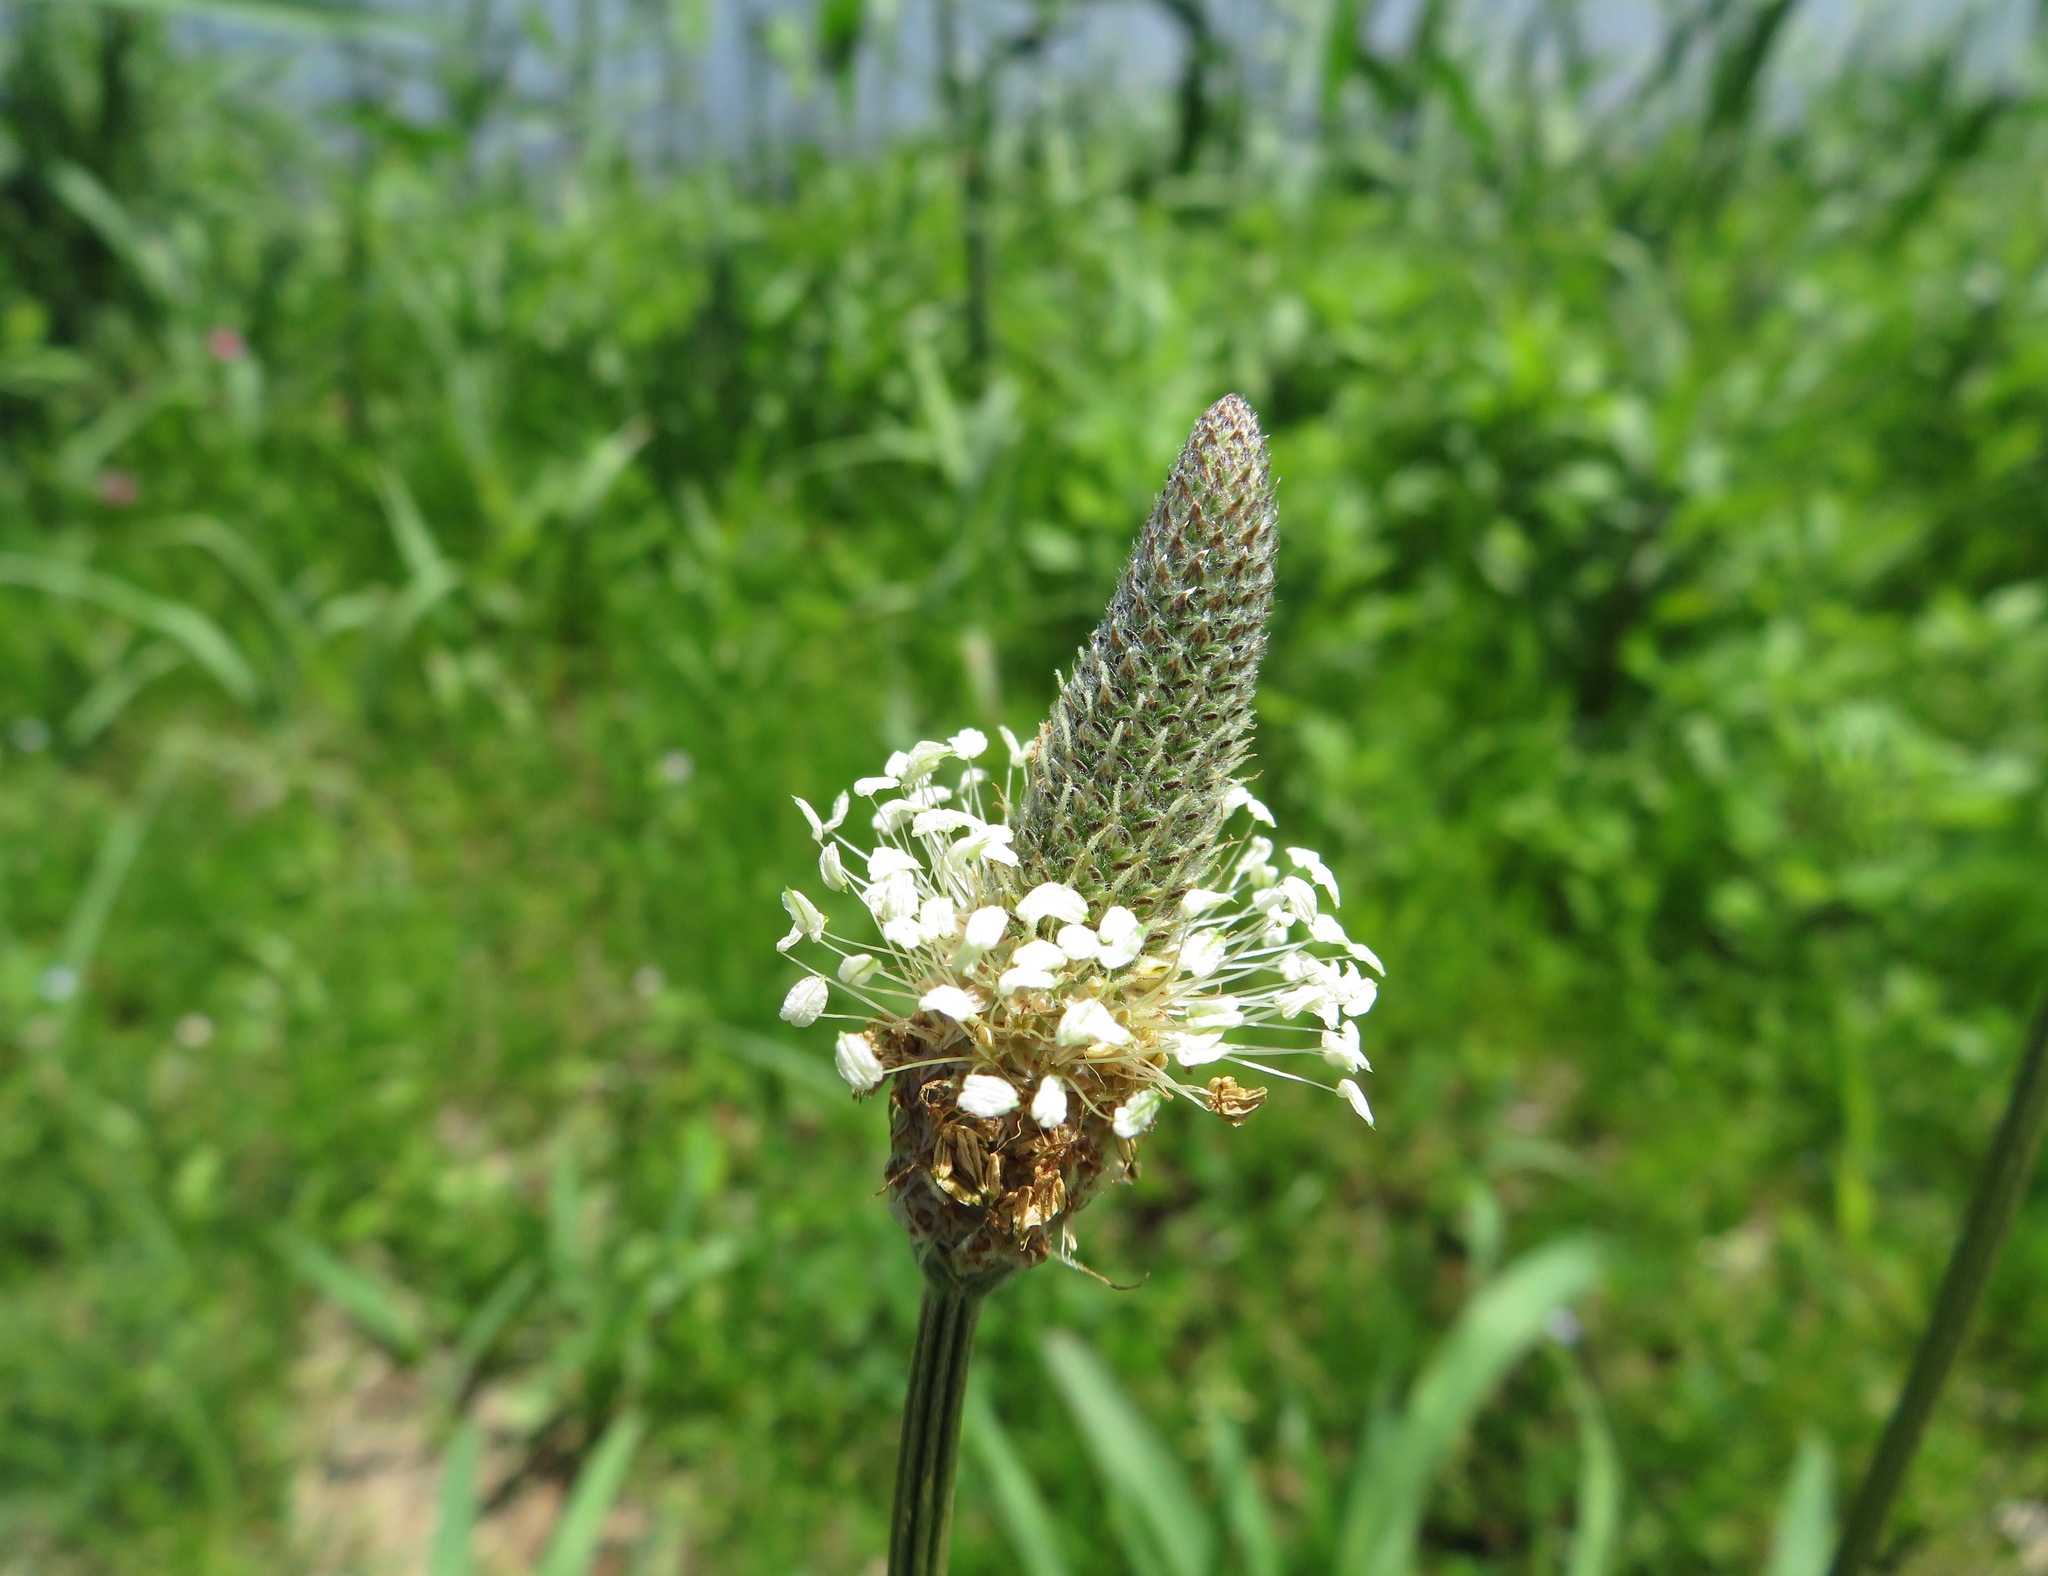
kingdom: Plantae
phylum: Tracheophyta
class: Magnoliopsida
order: Lamiales
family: Plantaginaceae
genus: Plantago
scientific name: Plantago lanceolata
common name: Ribwort plantain
